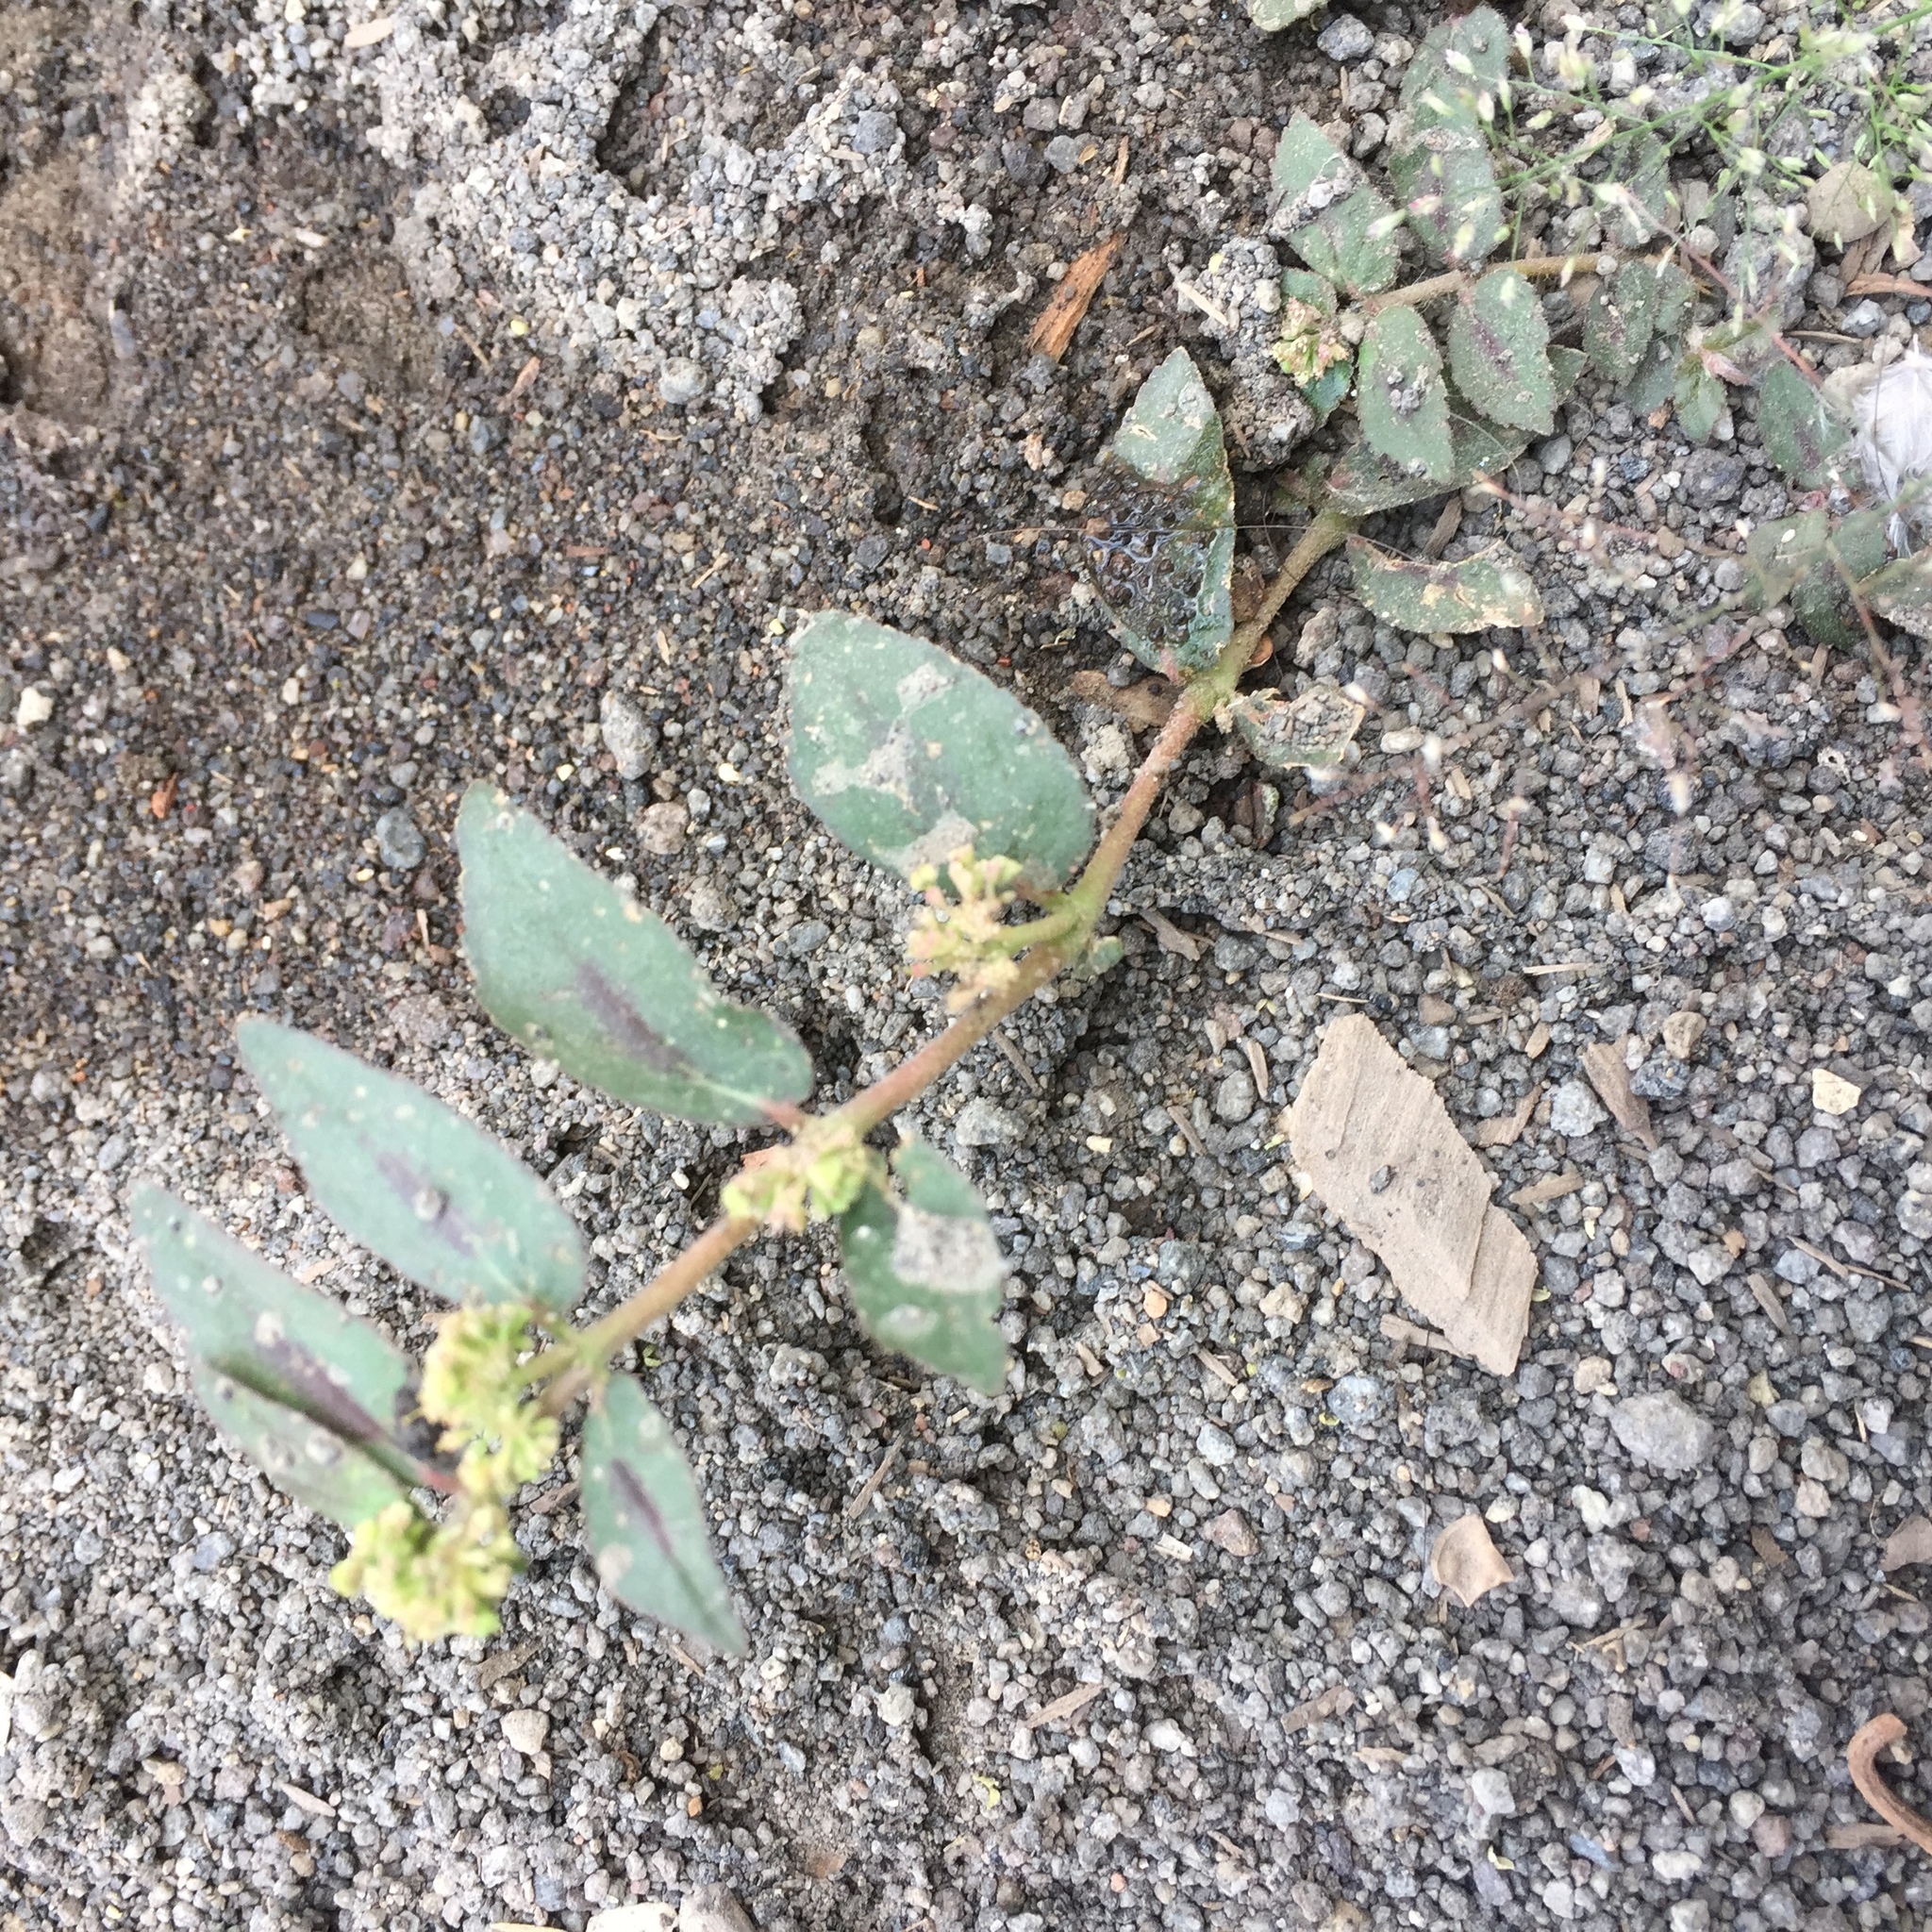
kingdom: Plantae
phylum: Tracheophyta
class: Magnoliopsida
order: Malpighiales
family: Euphorbiaceae
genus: Euphorbia
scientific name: Euphorbia hirta
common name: Pillpod sandmat
